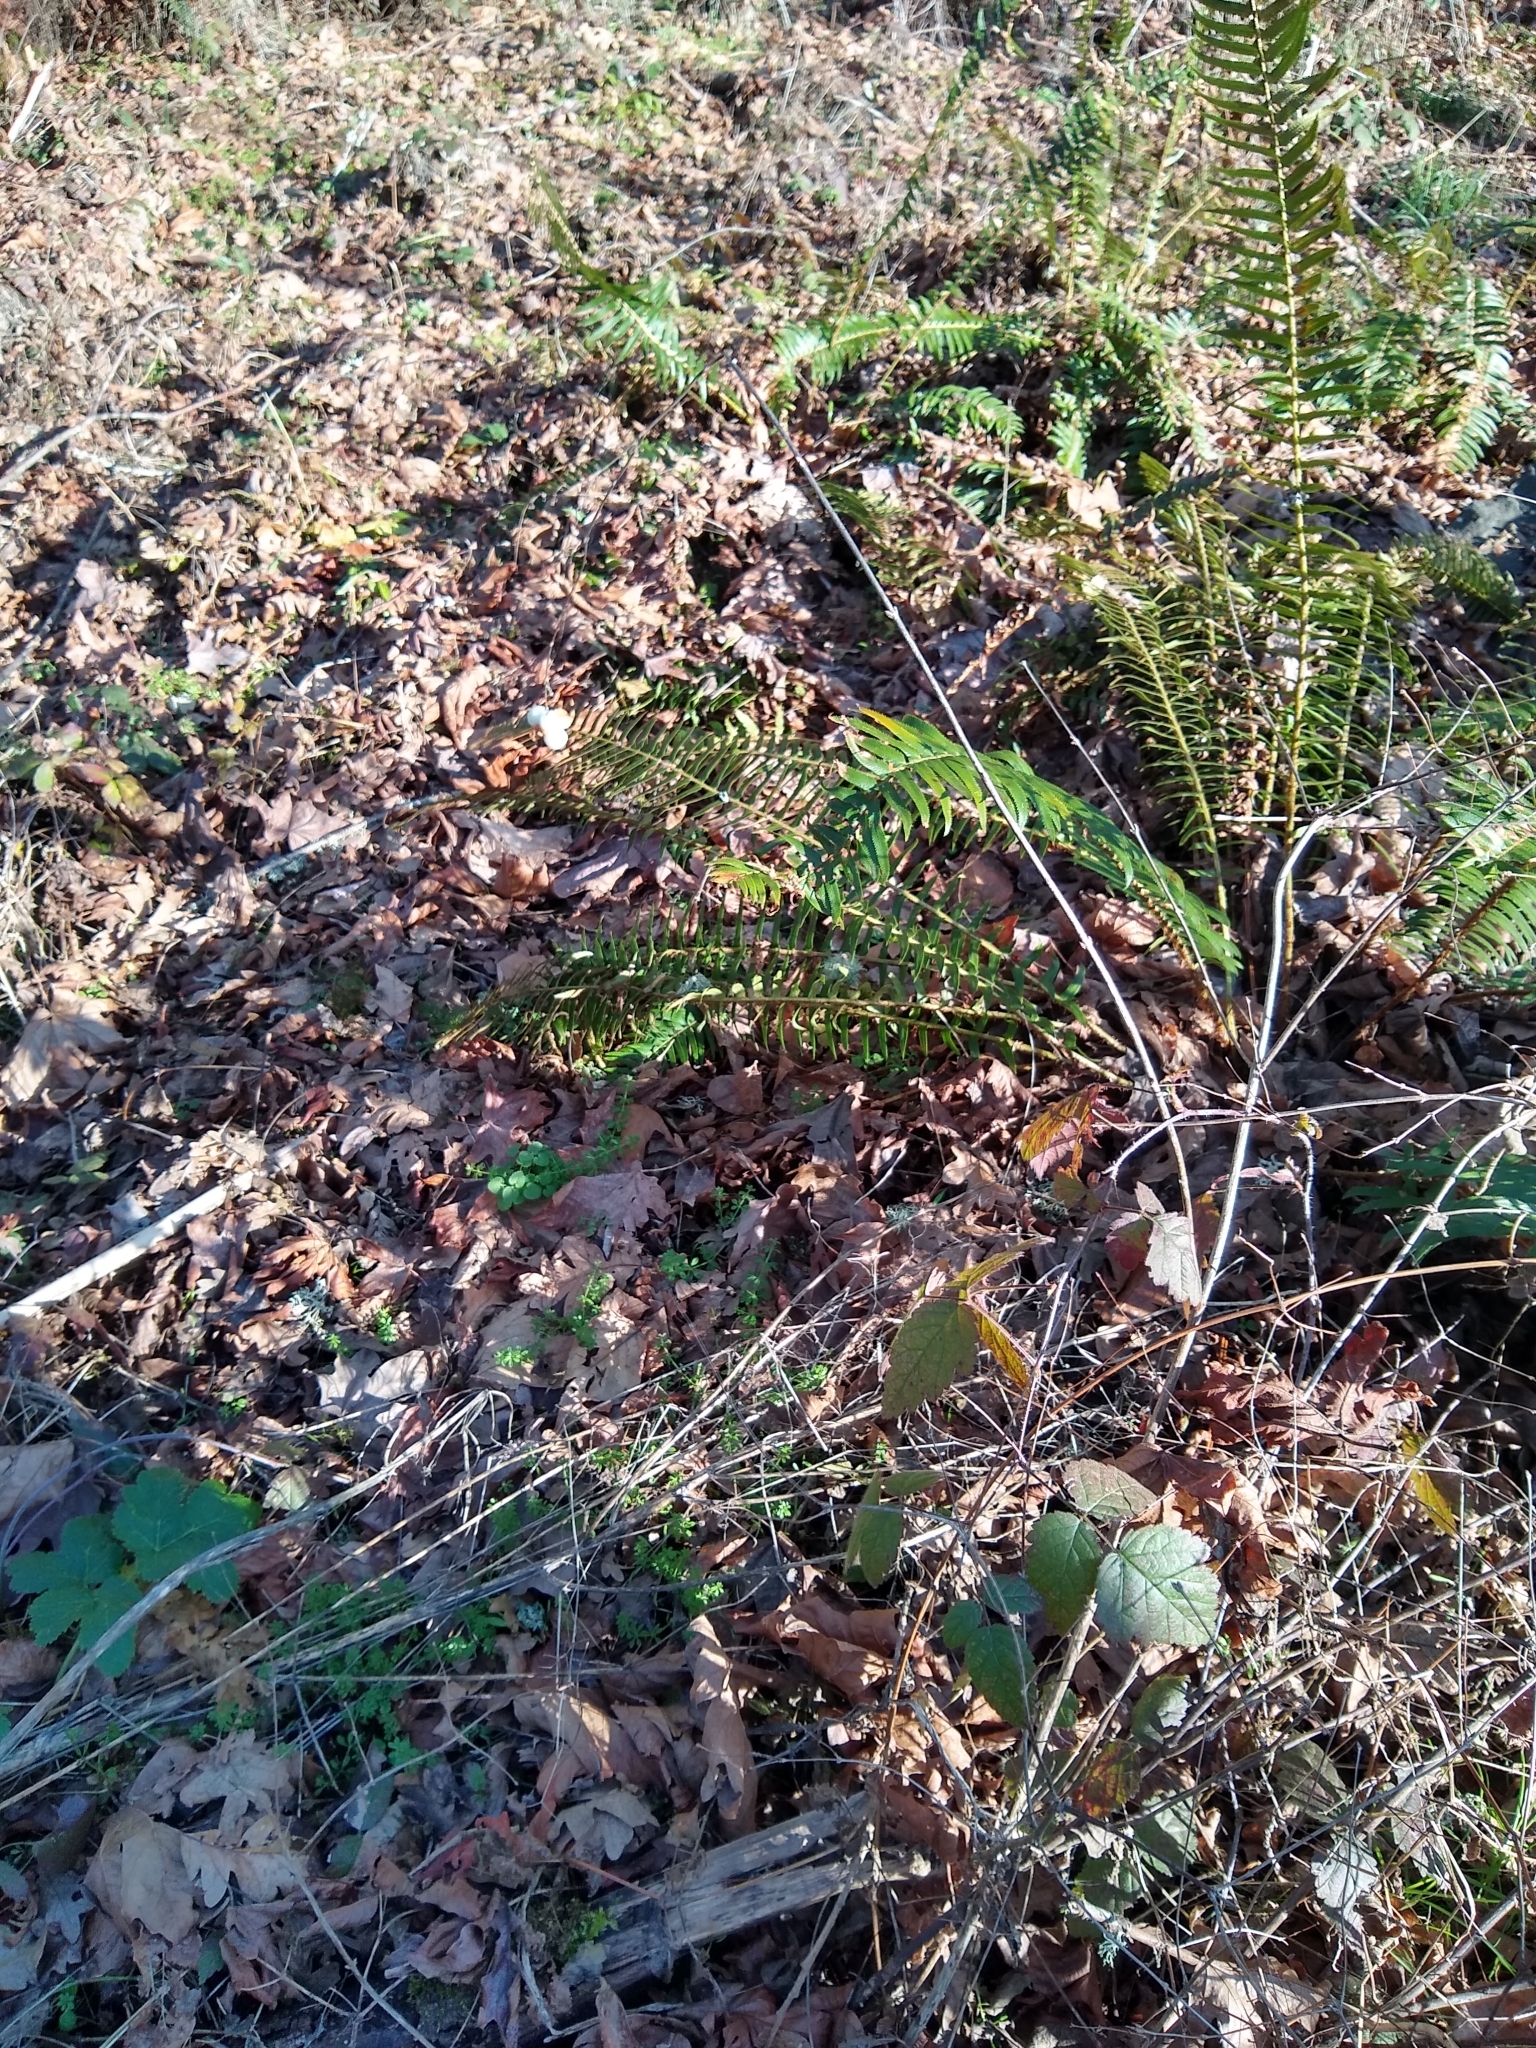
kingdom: Plantae
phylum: Tracheophyta
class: Magnoliopsida
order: Dipsacales
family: Caprifoliaceae
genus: Symphoricarpos
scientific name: Symphoricarpos albus
